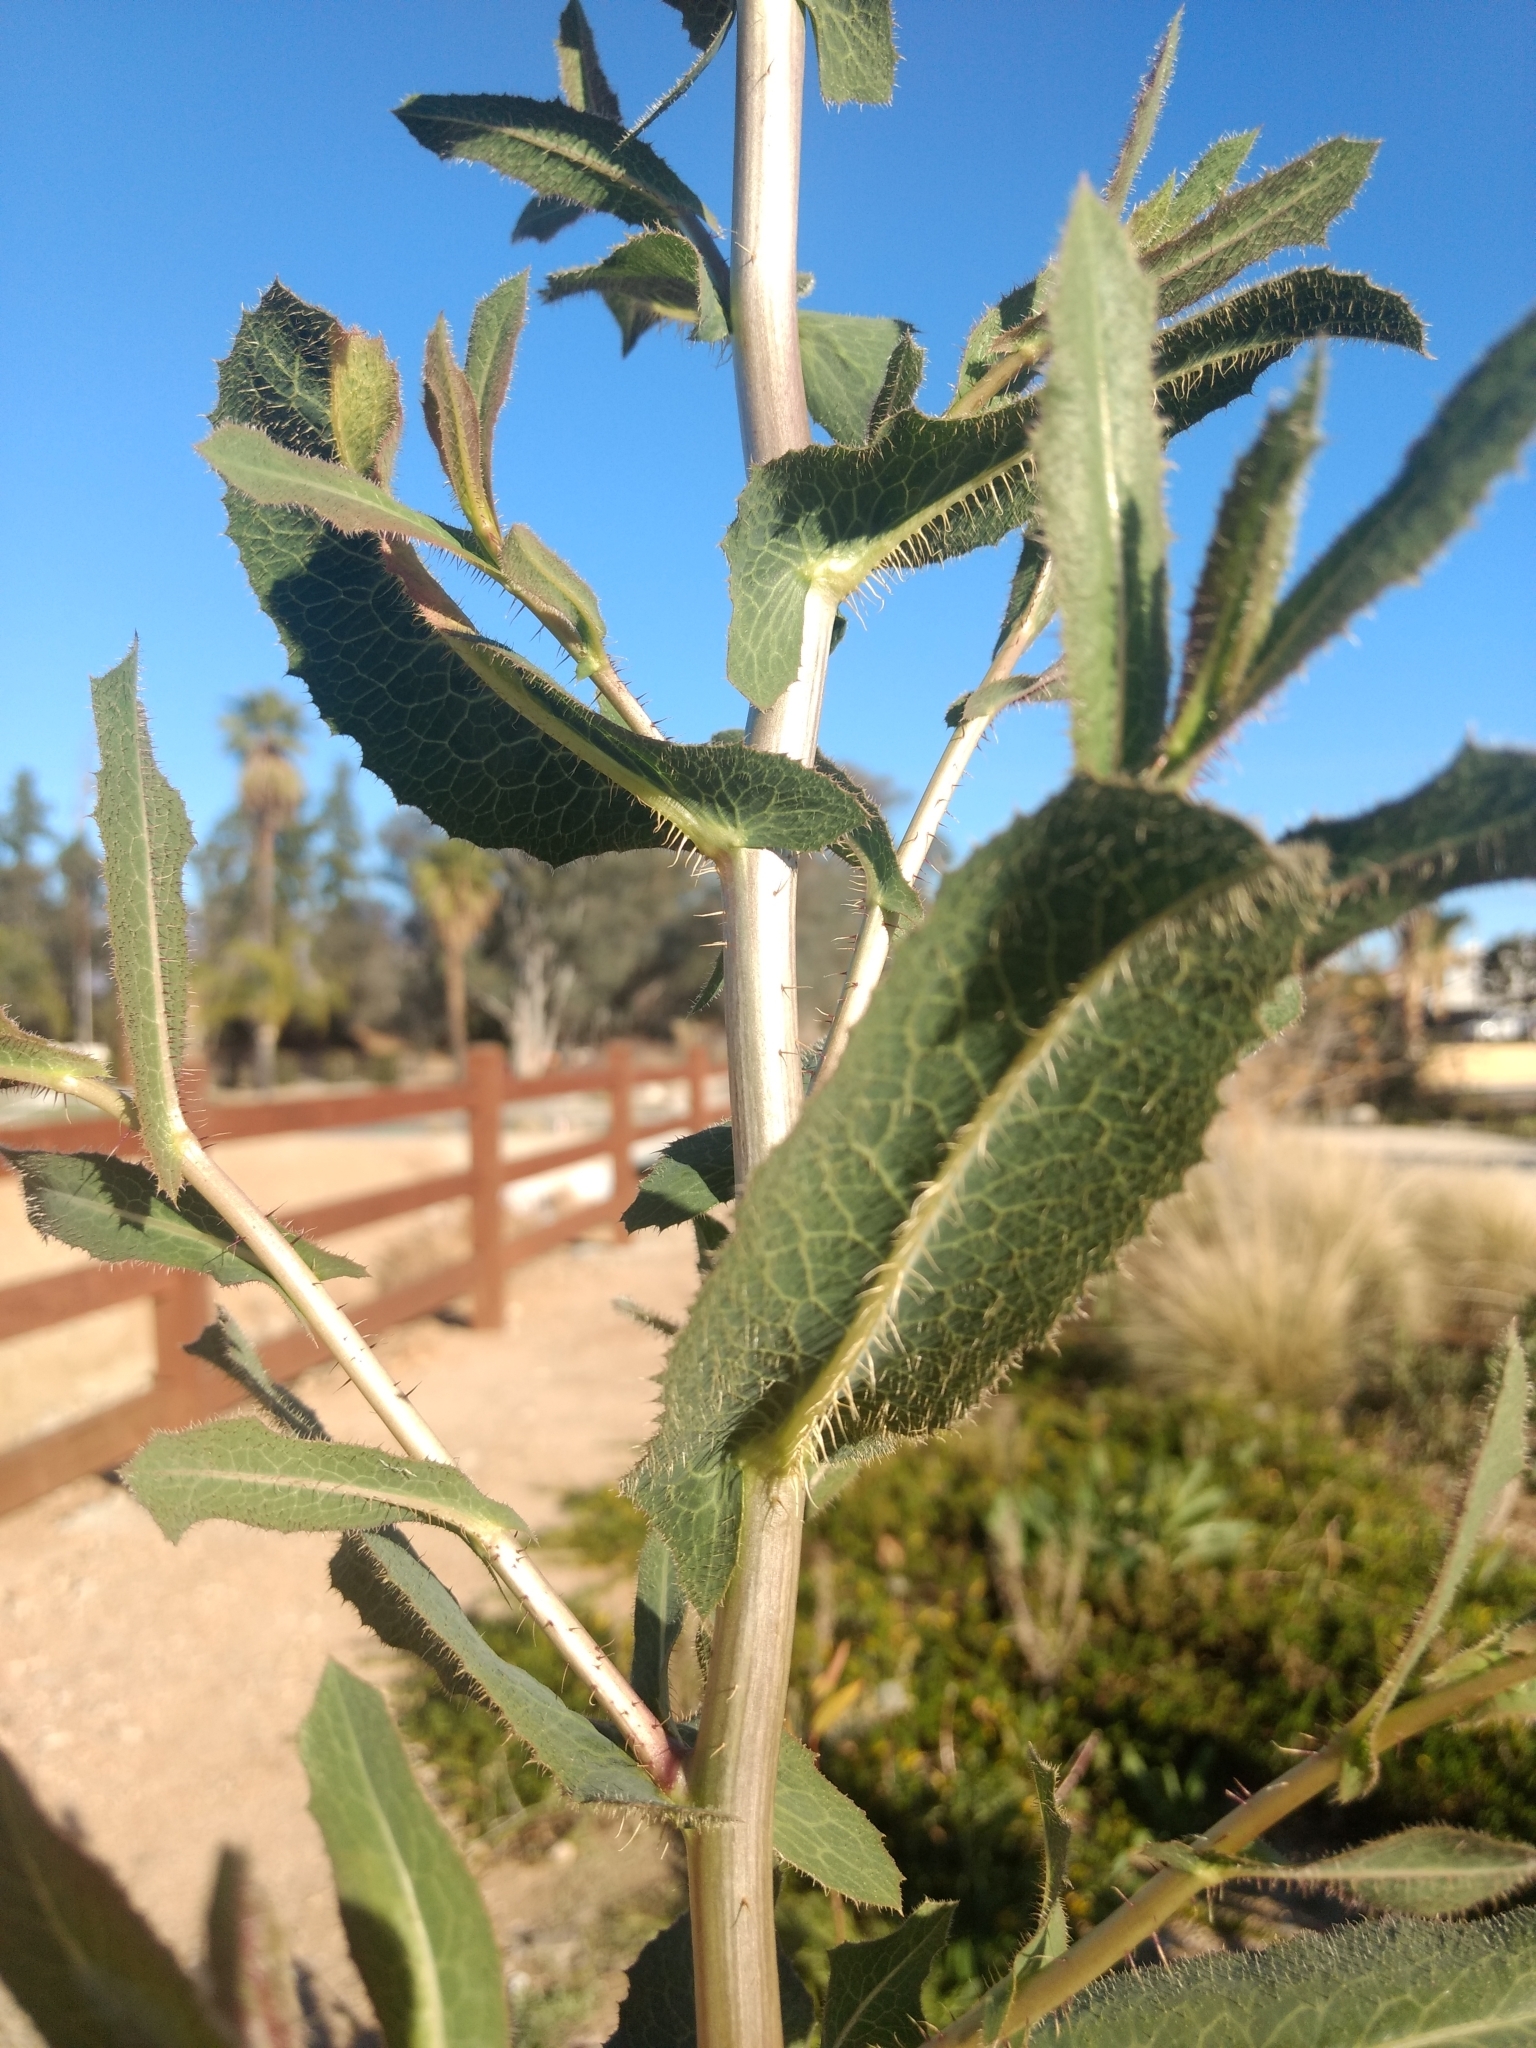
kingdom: Plantae
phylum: Tracheophyta
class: Magnoliopsida
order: Asterales
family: Asteraceae
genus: Lactuca
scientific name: Lactuca serriola
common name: Prickly lettuce
